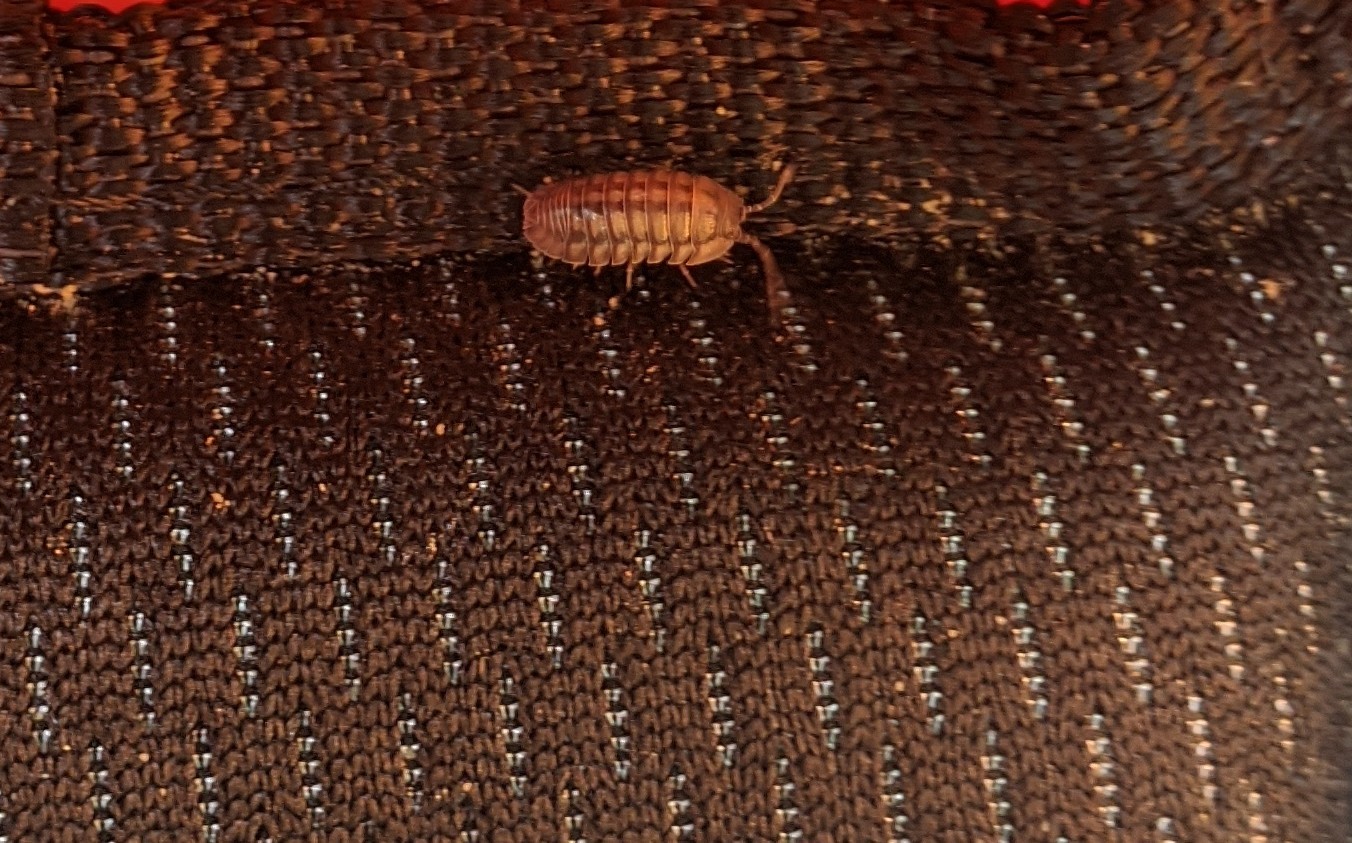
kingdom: Animalia
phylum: Arthropoda
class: Malacostraca
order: Isopoda
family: Armadillidiidae
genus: Armadillidium
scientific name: Armadillidium nasatum
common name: Isopod
